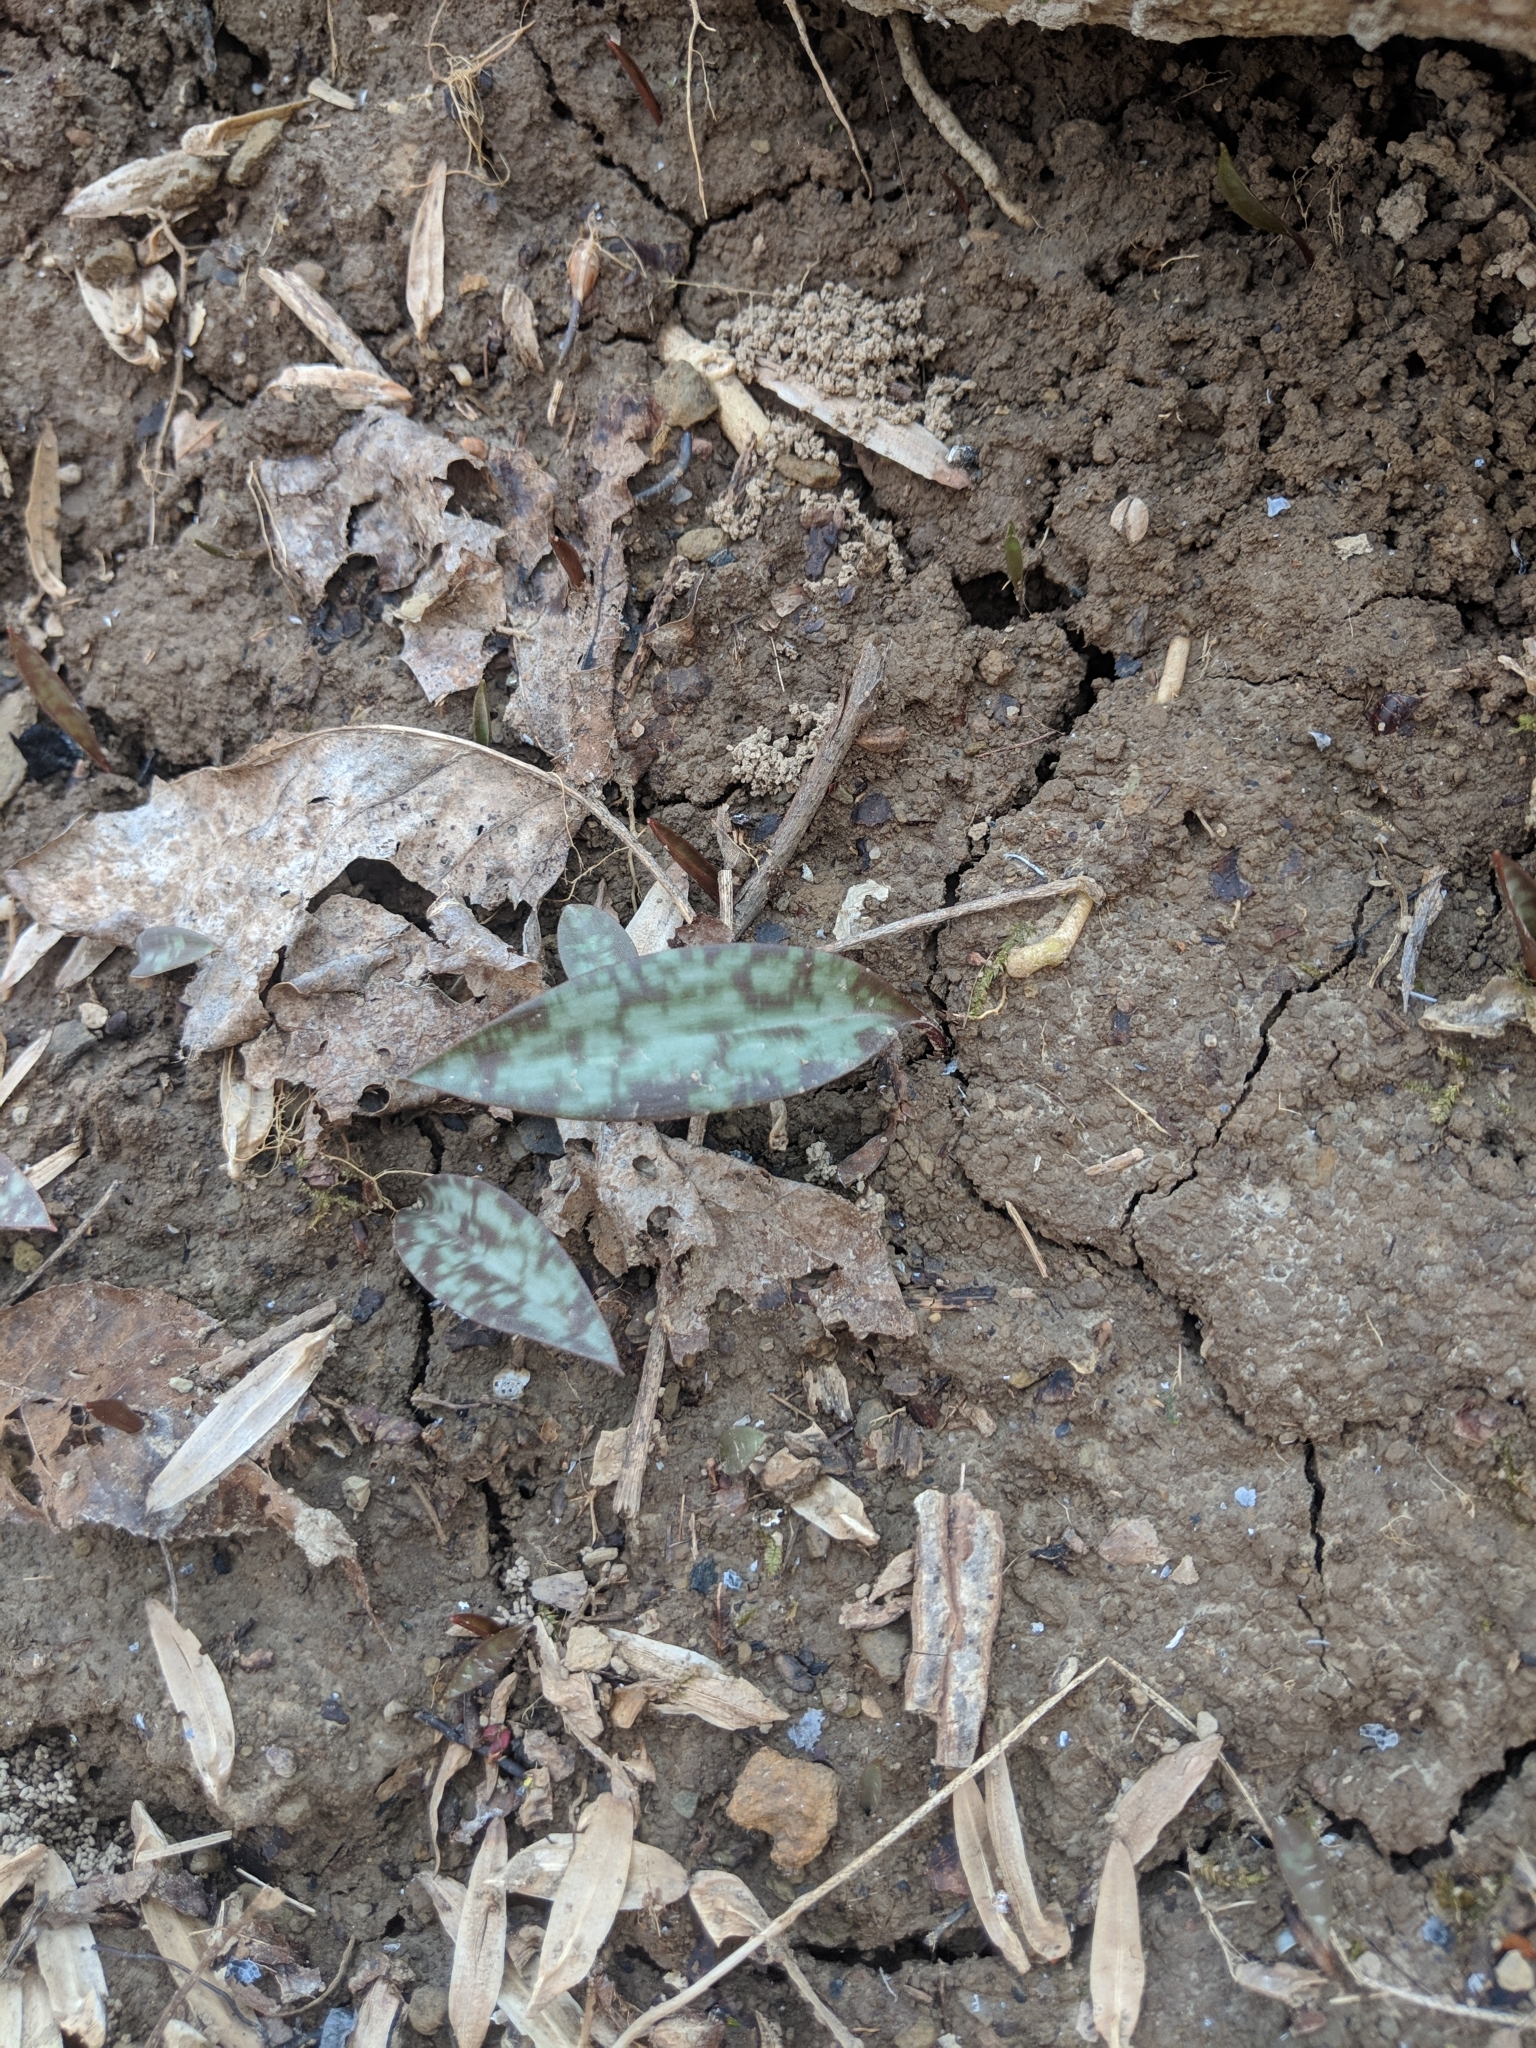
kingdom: Plantae
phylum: Tracheophyta
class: Liliopsida
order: Liliales
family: Liliaceae
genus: Erythronium
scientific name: Erythronium americanum
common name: Yellow adder's-tongue
